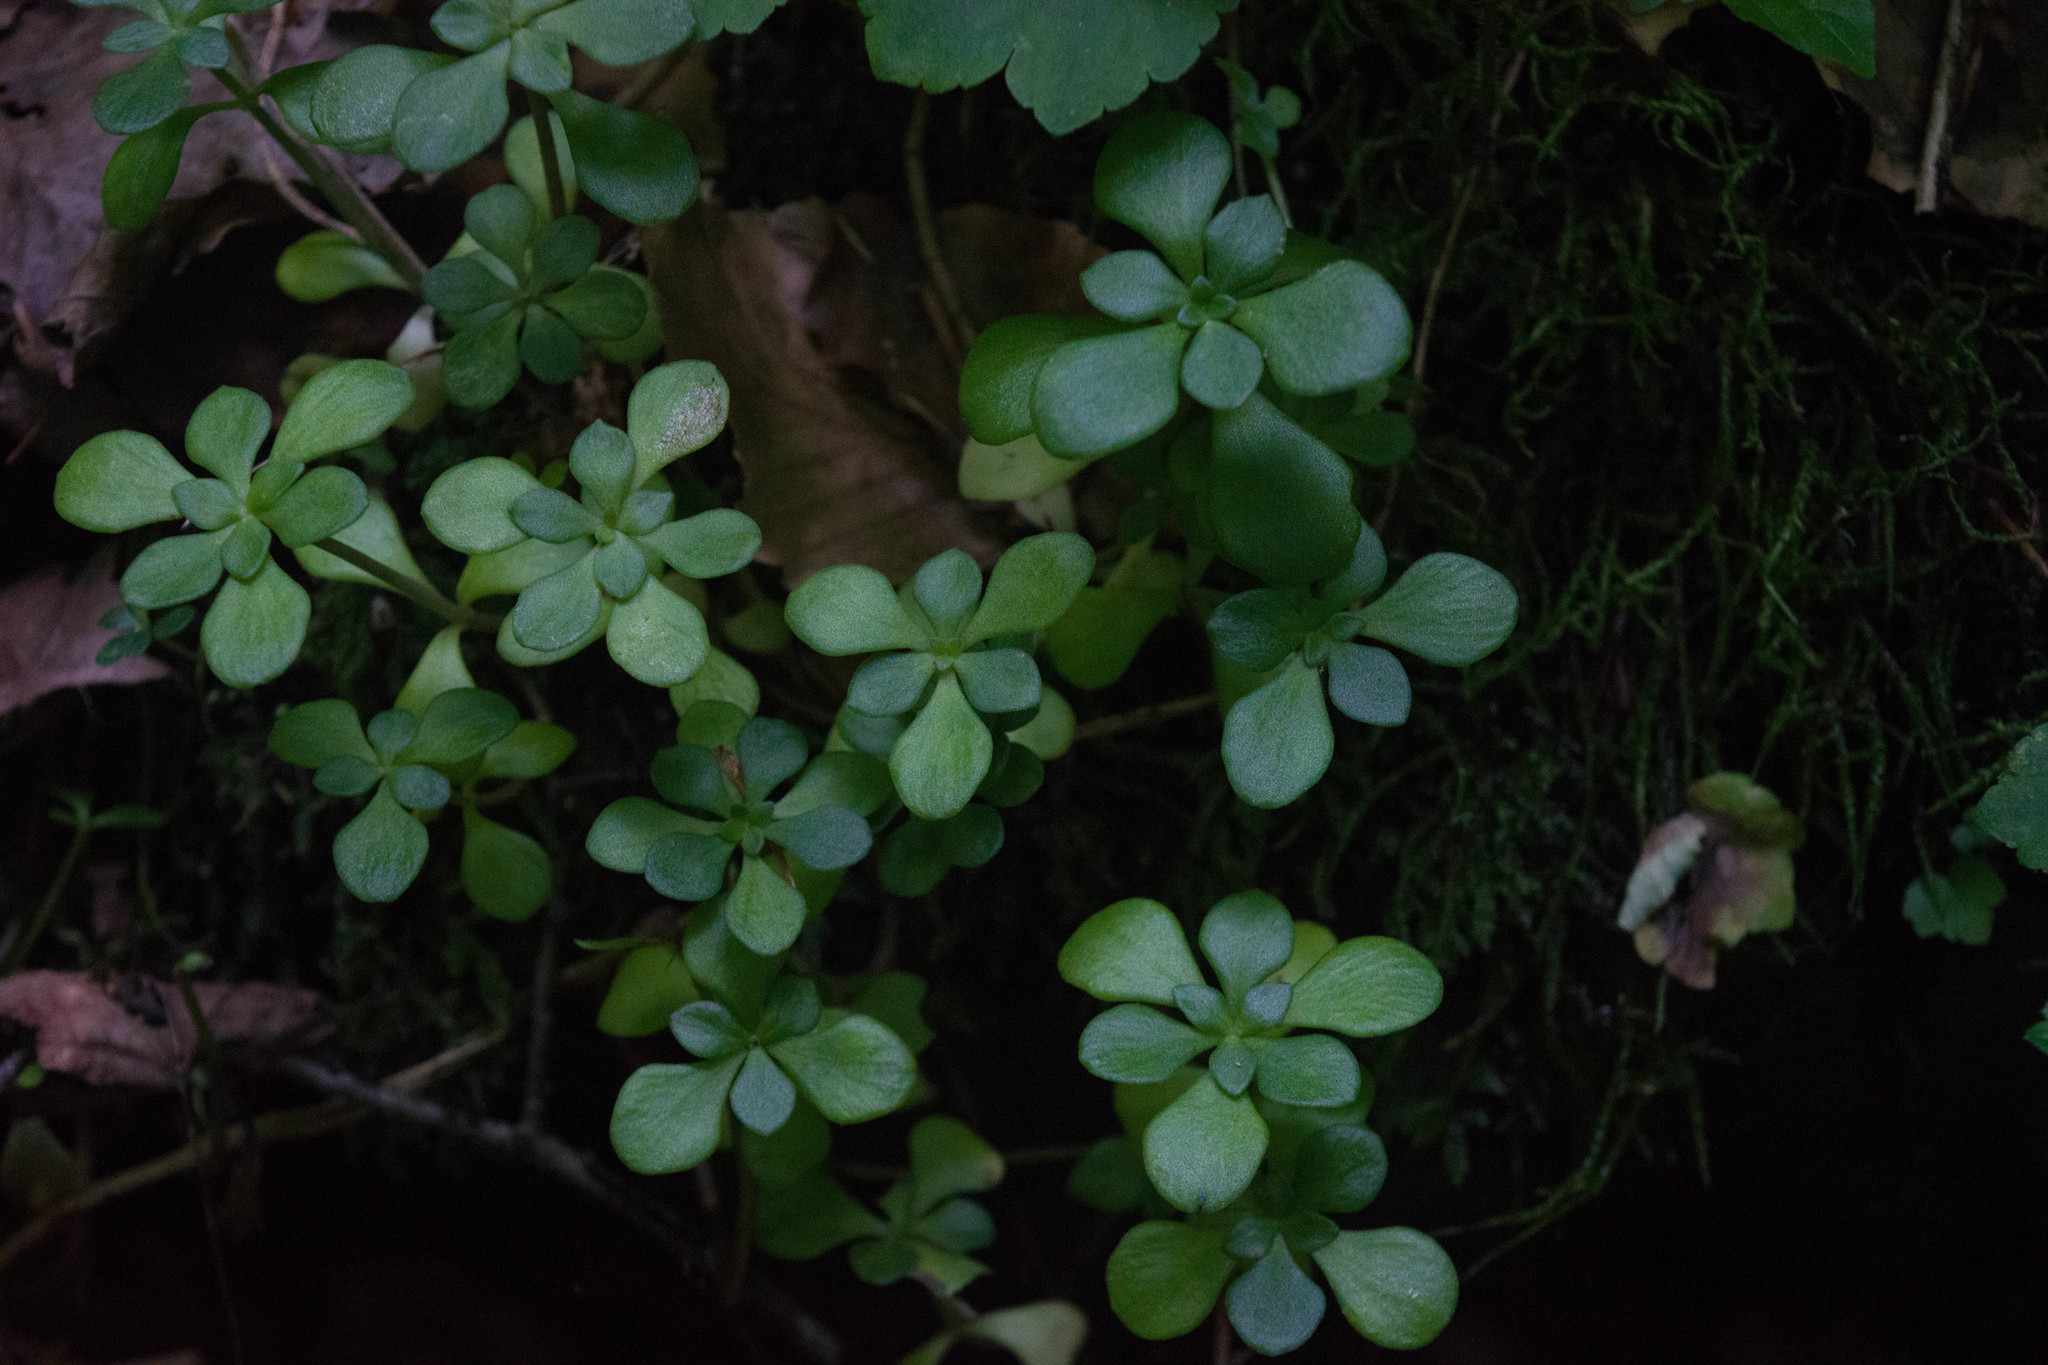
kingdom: Plantae
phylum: Tracheophyta
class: Magnoliopsida
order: Saxifragales
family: Crassulaceae
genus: Sedum
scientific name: Sedum ternatum
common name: Wild stonecrop
